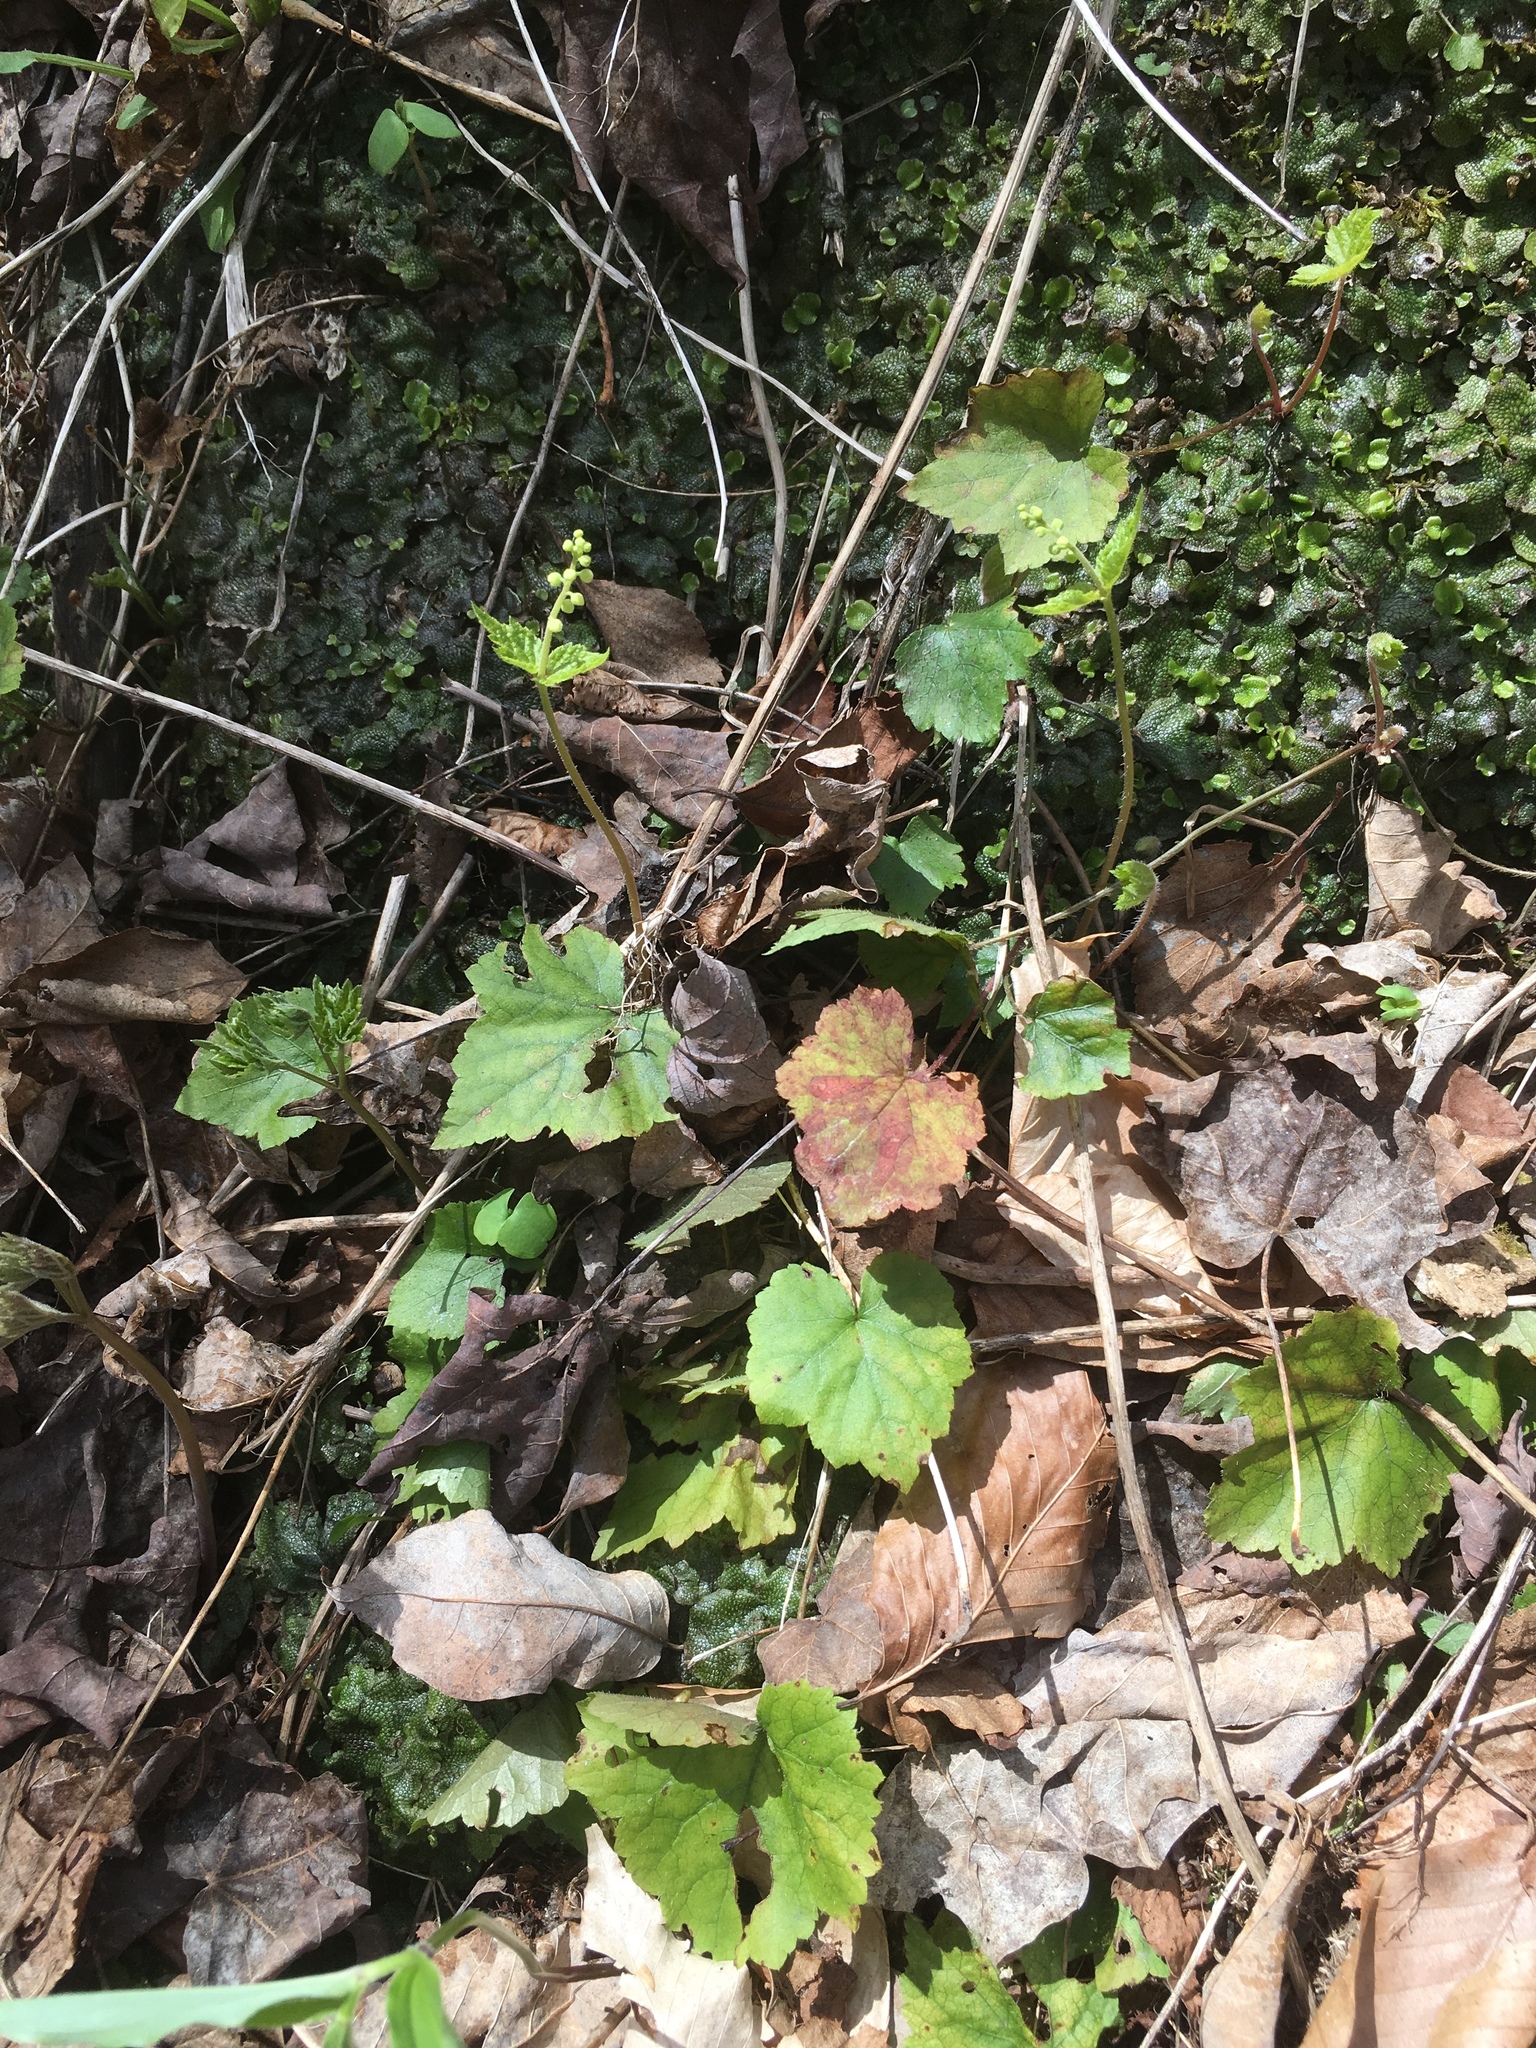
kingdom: Plantae
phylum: Tracheophyta
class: Magnoliopsida
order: Saxifragales
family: Saxifragaceae
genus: Mitella
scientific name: Mitella diphylla
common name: Coolwort
